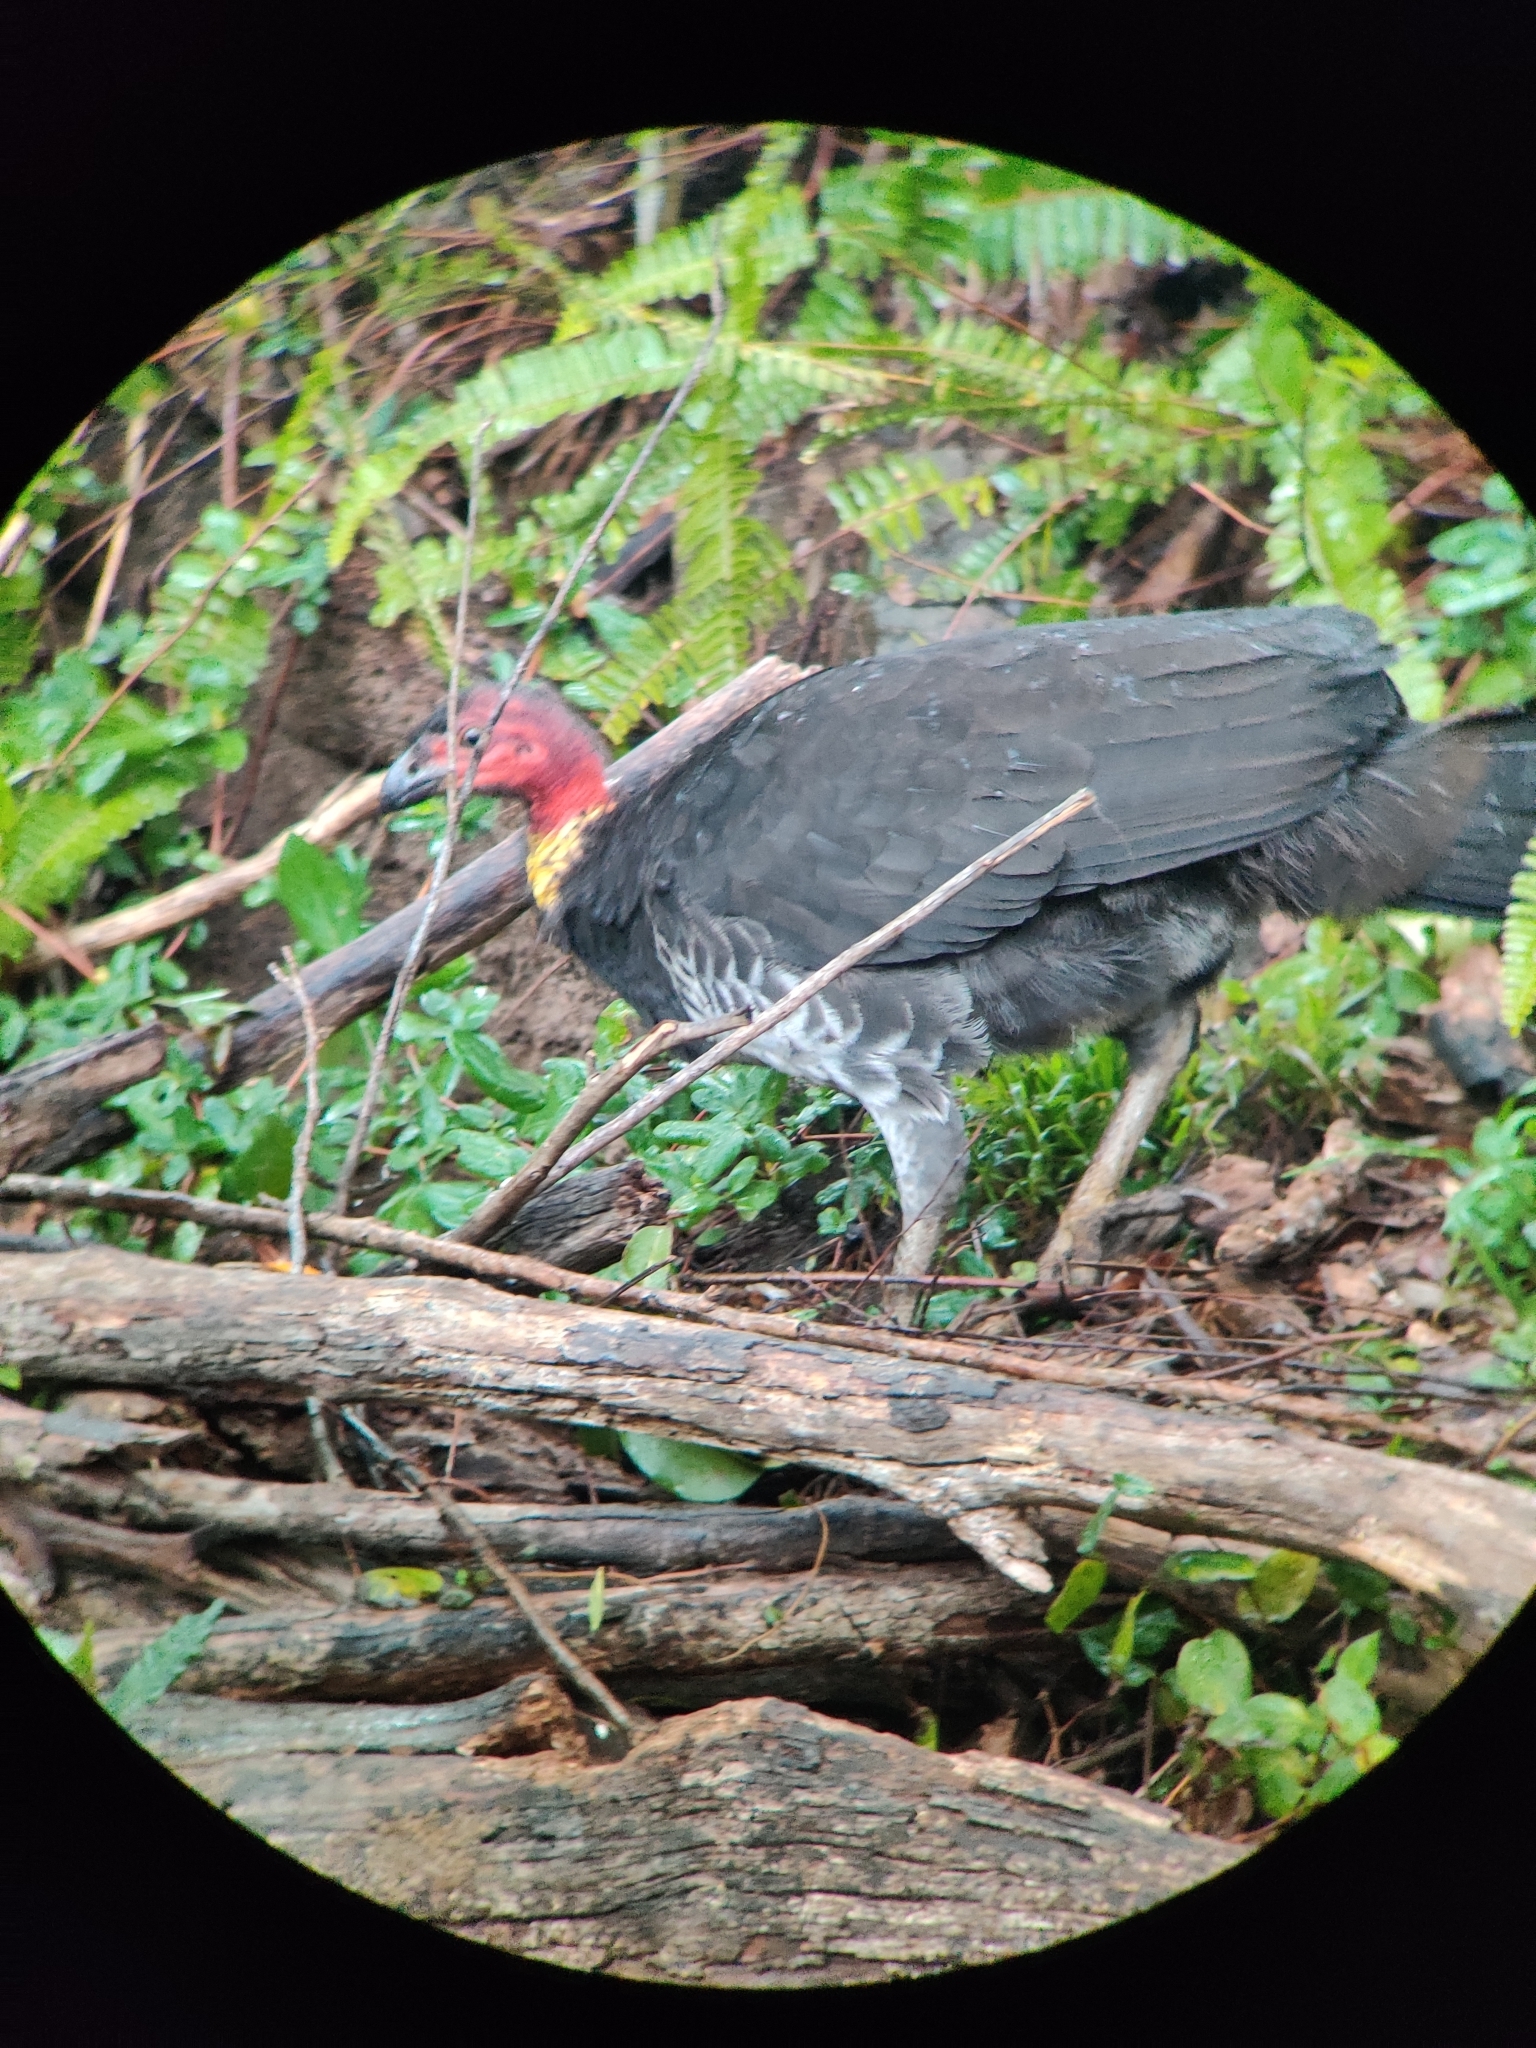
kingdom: Animalia
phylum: Chordata
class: Aves
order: Galliformes
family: Megapodiidae
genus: Alectura
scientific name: Alectura lathami
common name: Australian brushturkey
